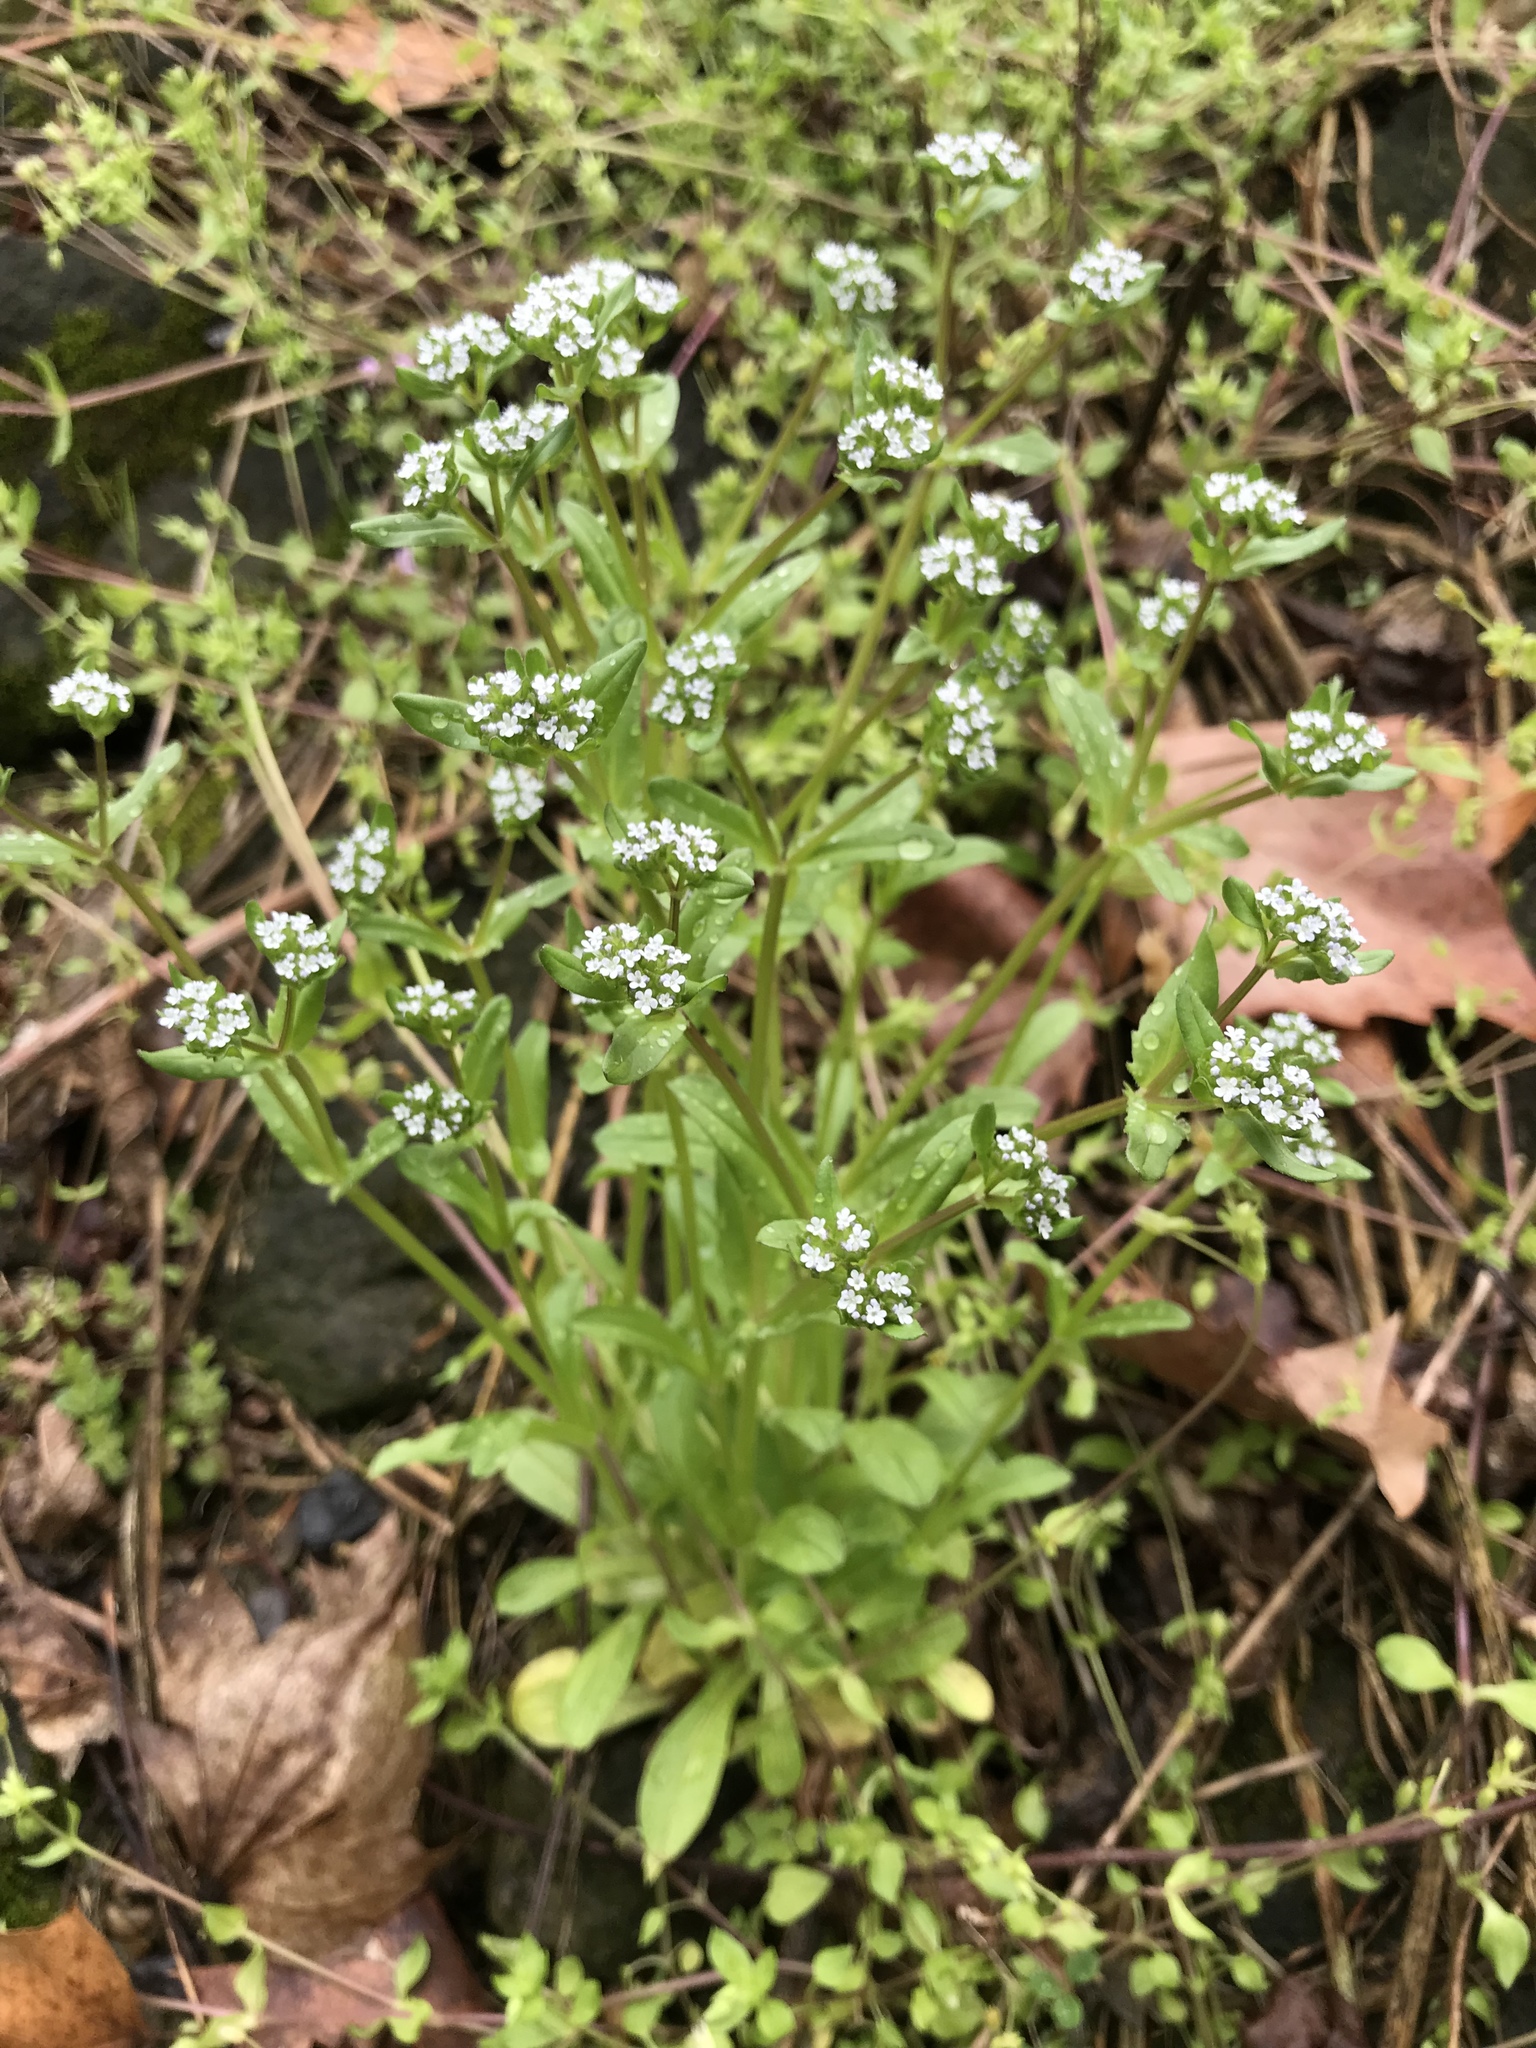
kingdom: Plantae
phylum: Tracheophyta
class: Magnoliopsida
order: Dipsacales
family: Caprifoliaceae
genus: Valerianella
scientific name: Valerianella locusta
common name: Common cornsalad
